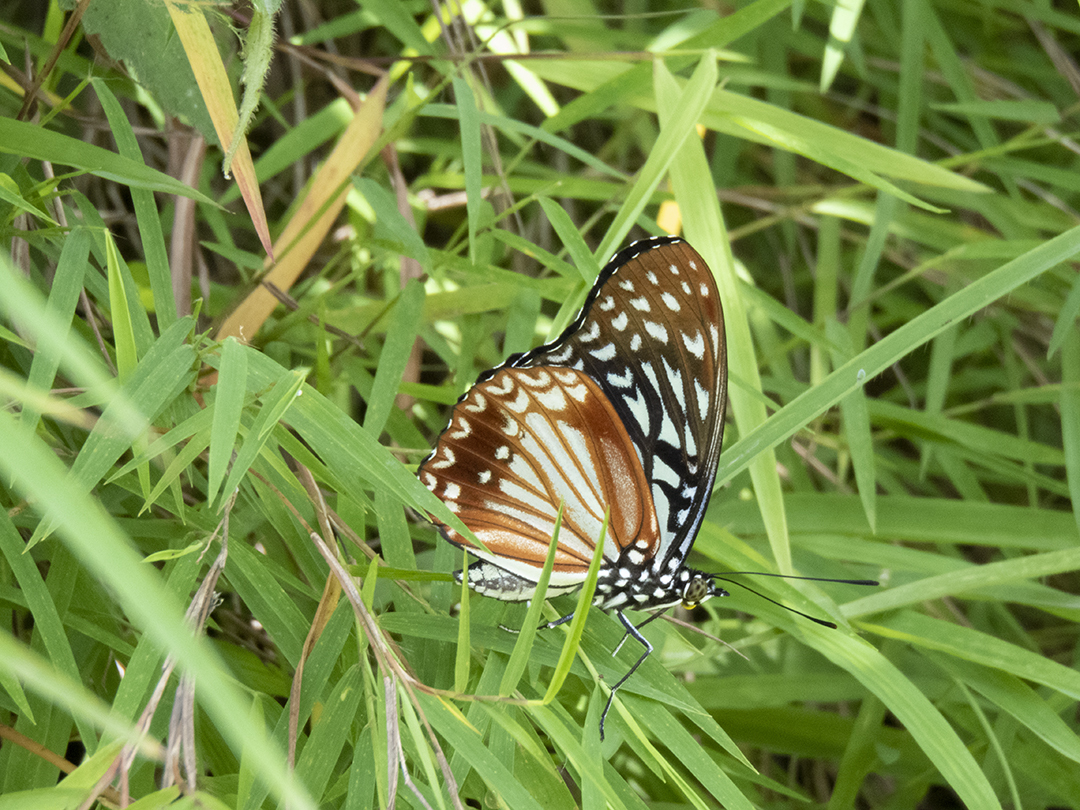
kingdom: Animalia
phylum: Arthropoda
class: Insecta
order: Lepidoptera
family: Nymphalidae
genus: Hestinalis
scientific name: Hestinalis nama
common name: Circe
